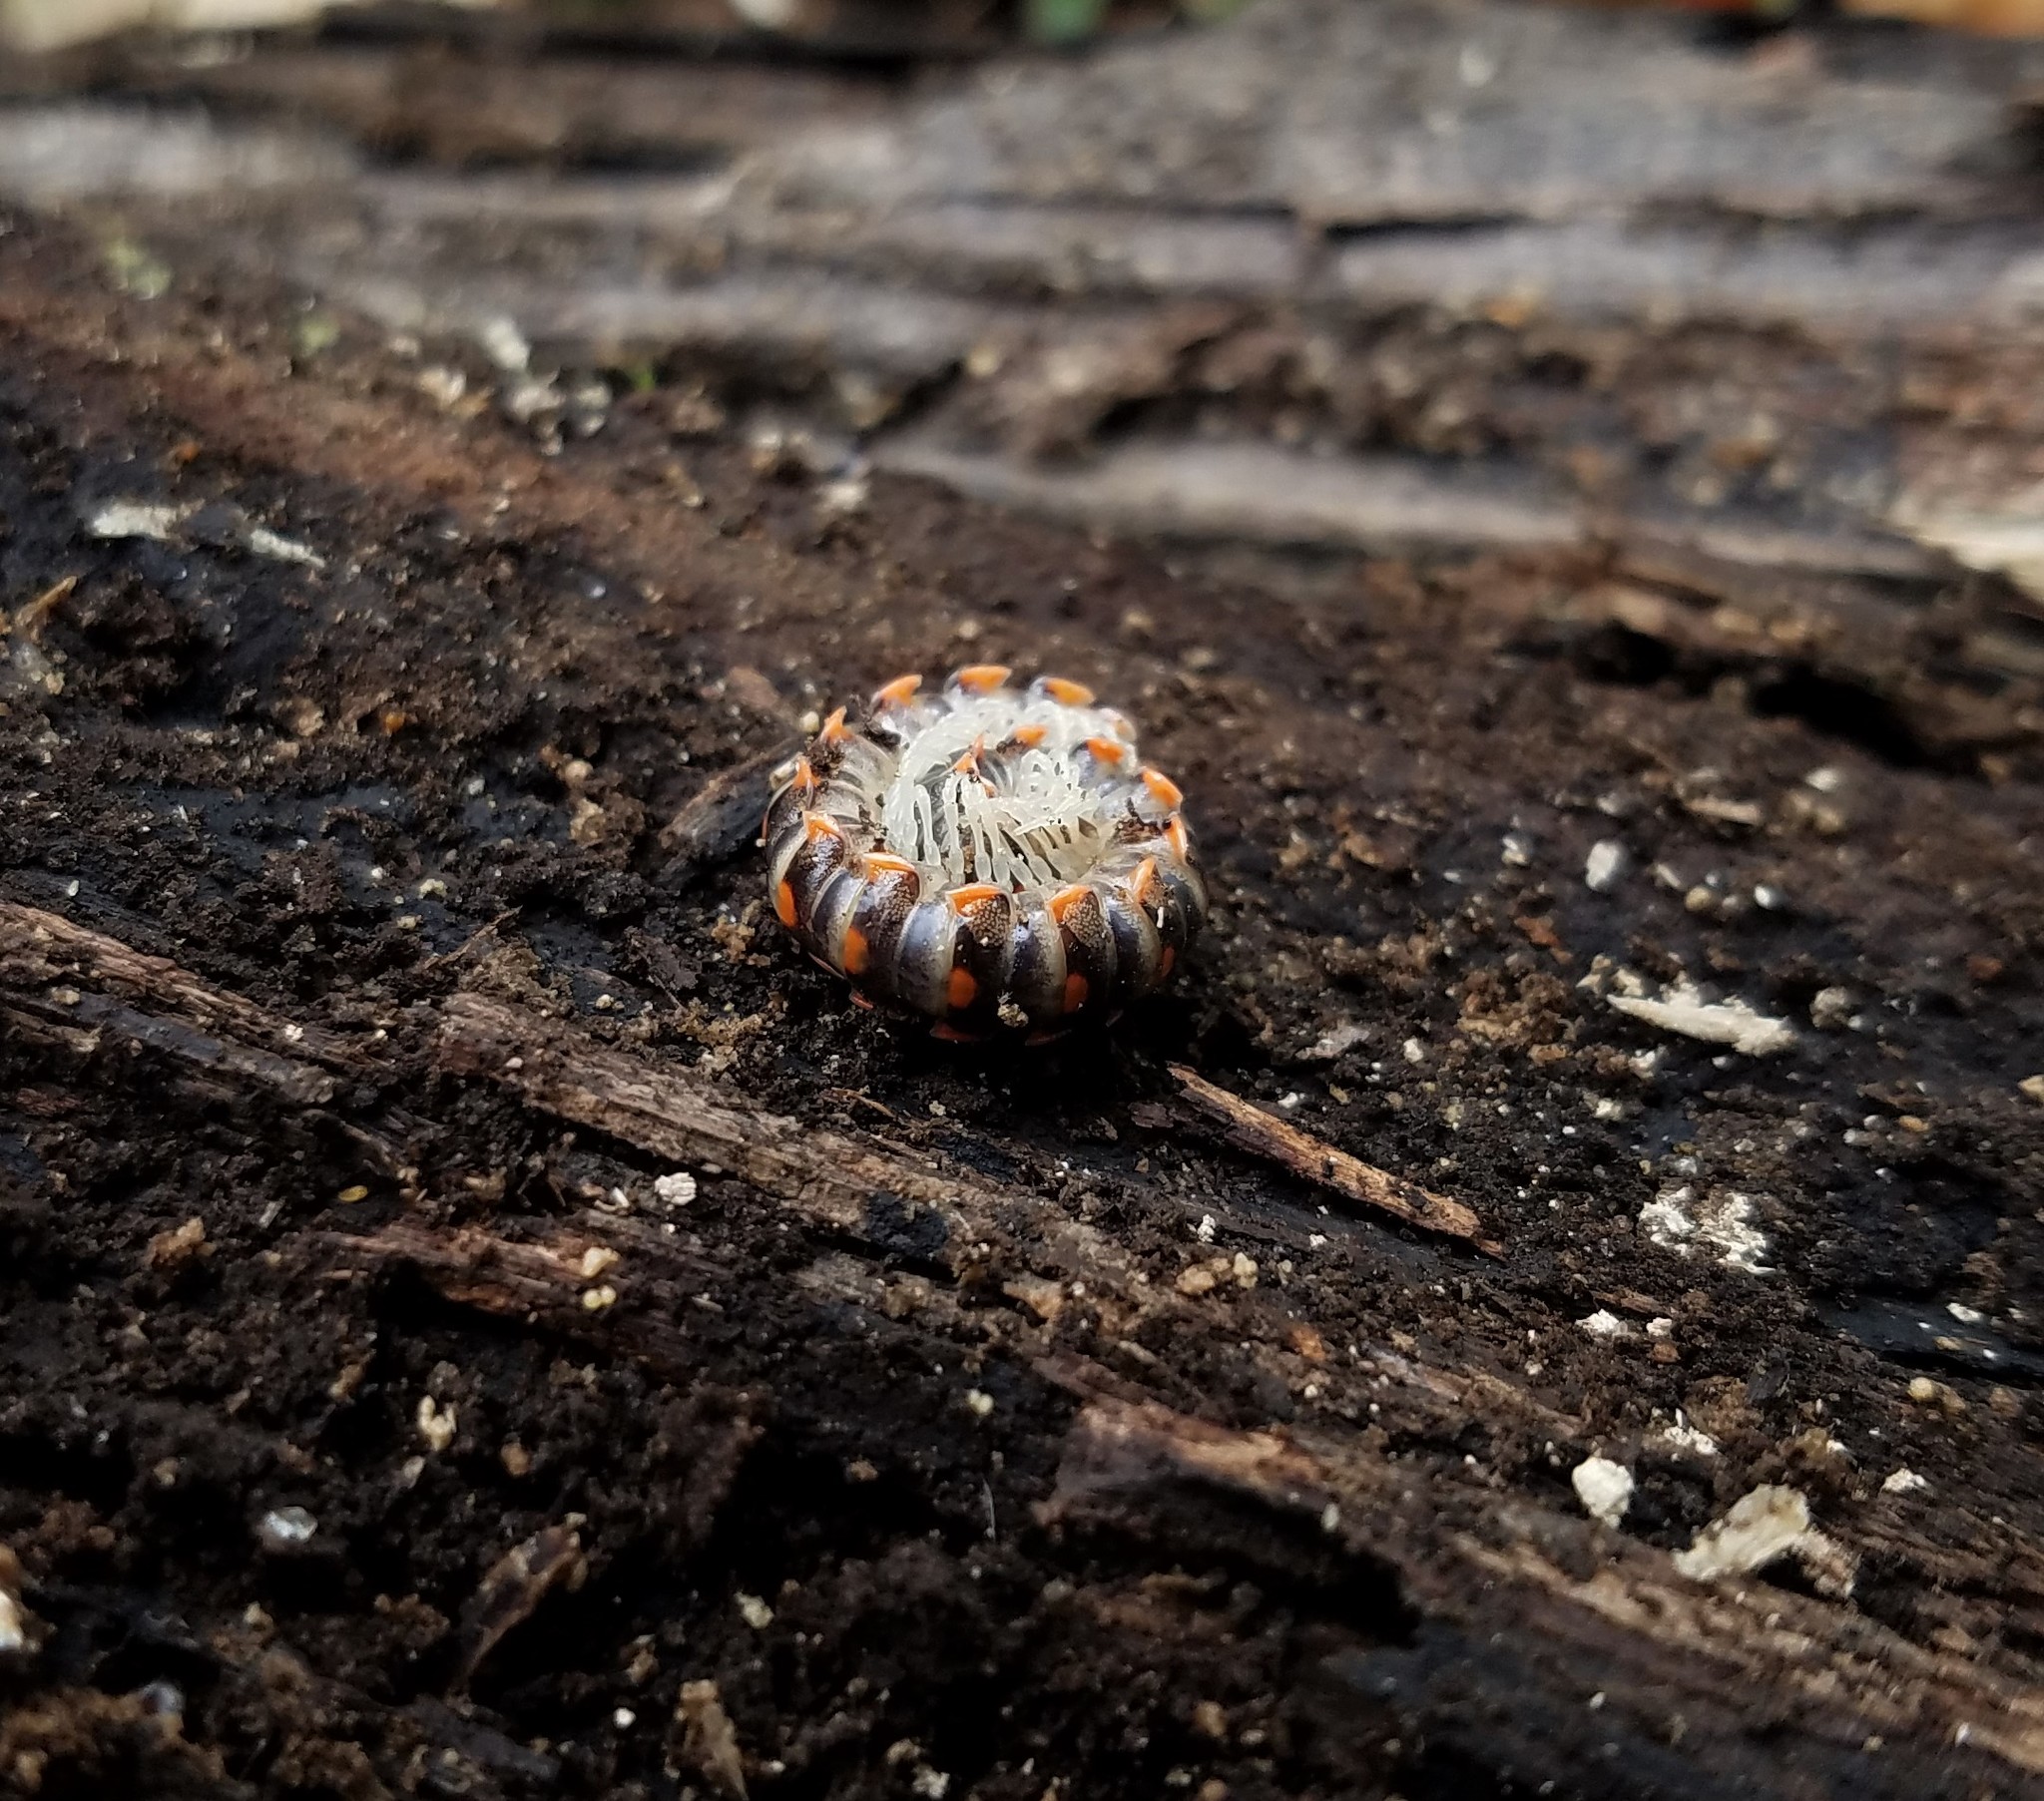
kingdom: Animalia
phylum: Arthropoda
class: Diplopoda
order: Polydesmida
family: Xystodesmidae
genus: Euryurus
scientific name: Euryurus leachii
